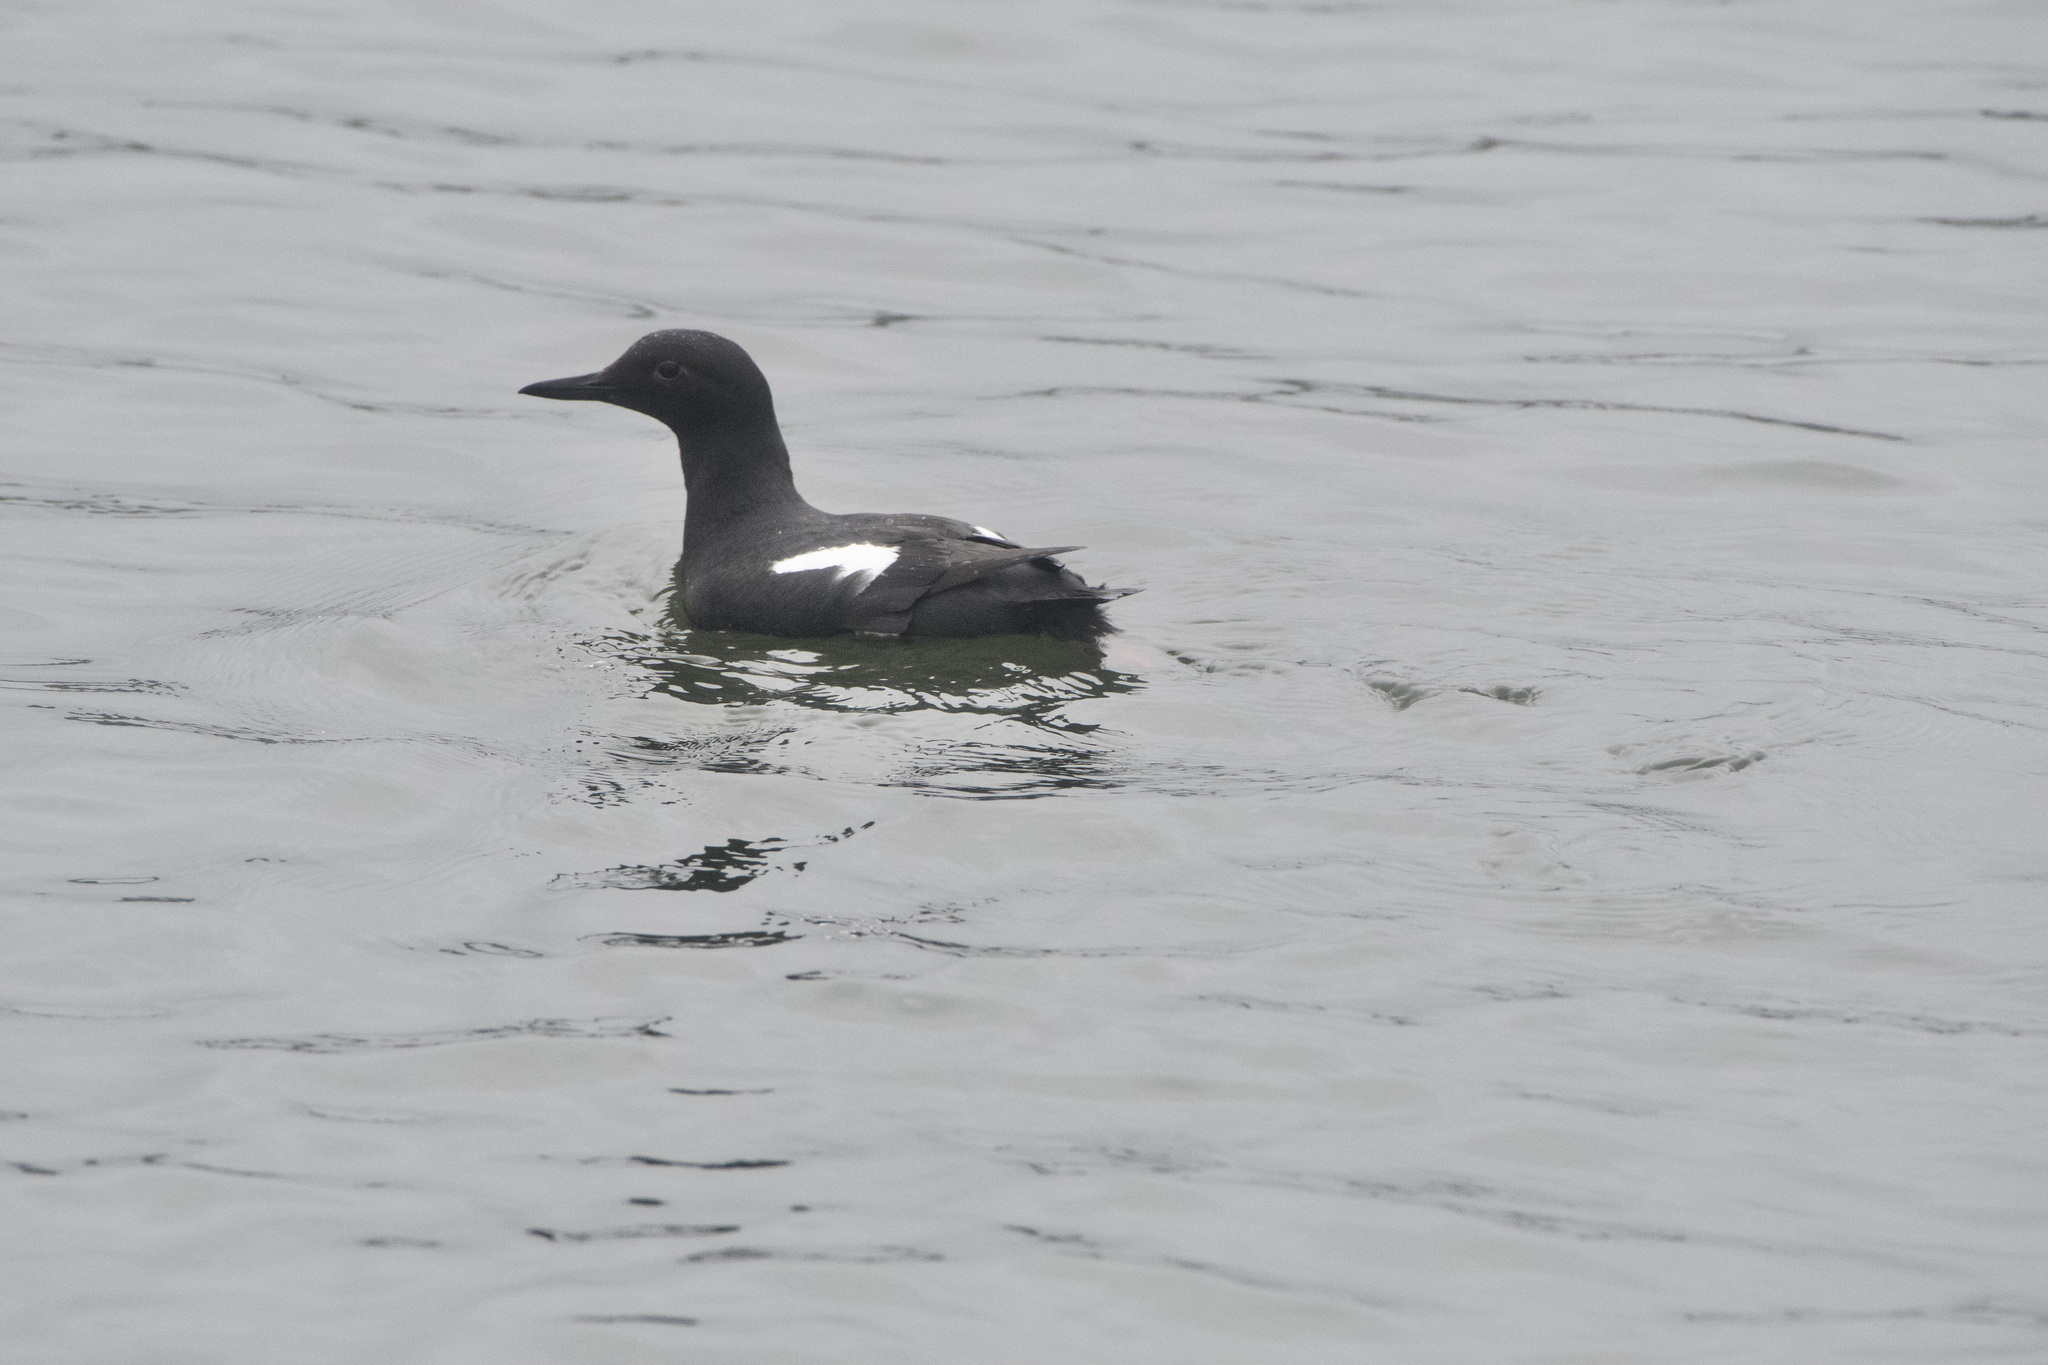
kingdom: Animalia
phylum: Chordata
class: Aves
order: Charadriiformes
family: Alcidae
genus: Cepphus
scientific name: Cepphus columba
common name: Pigeon guillemot
